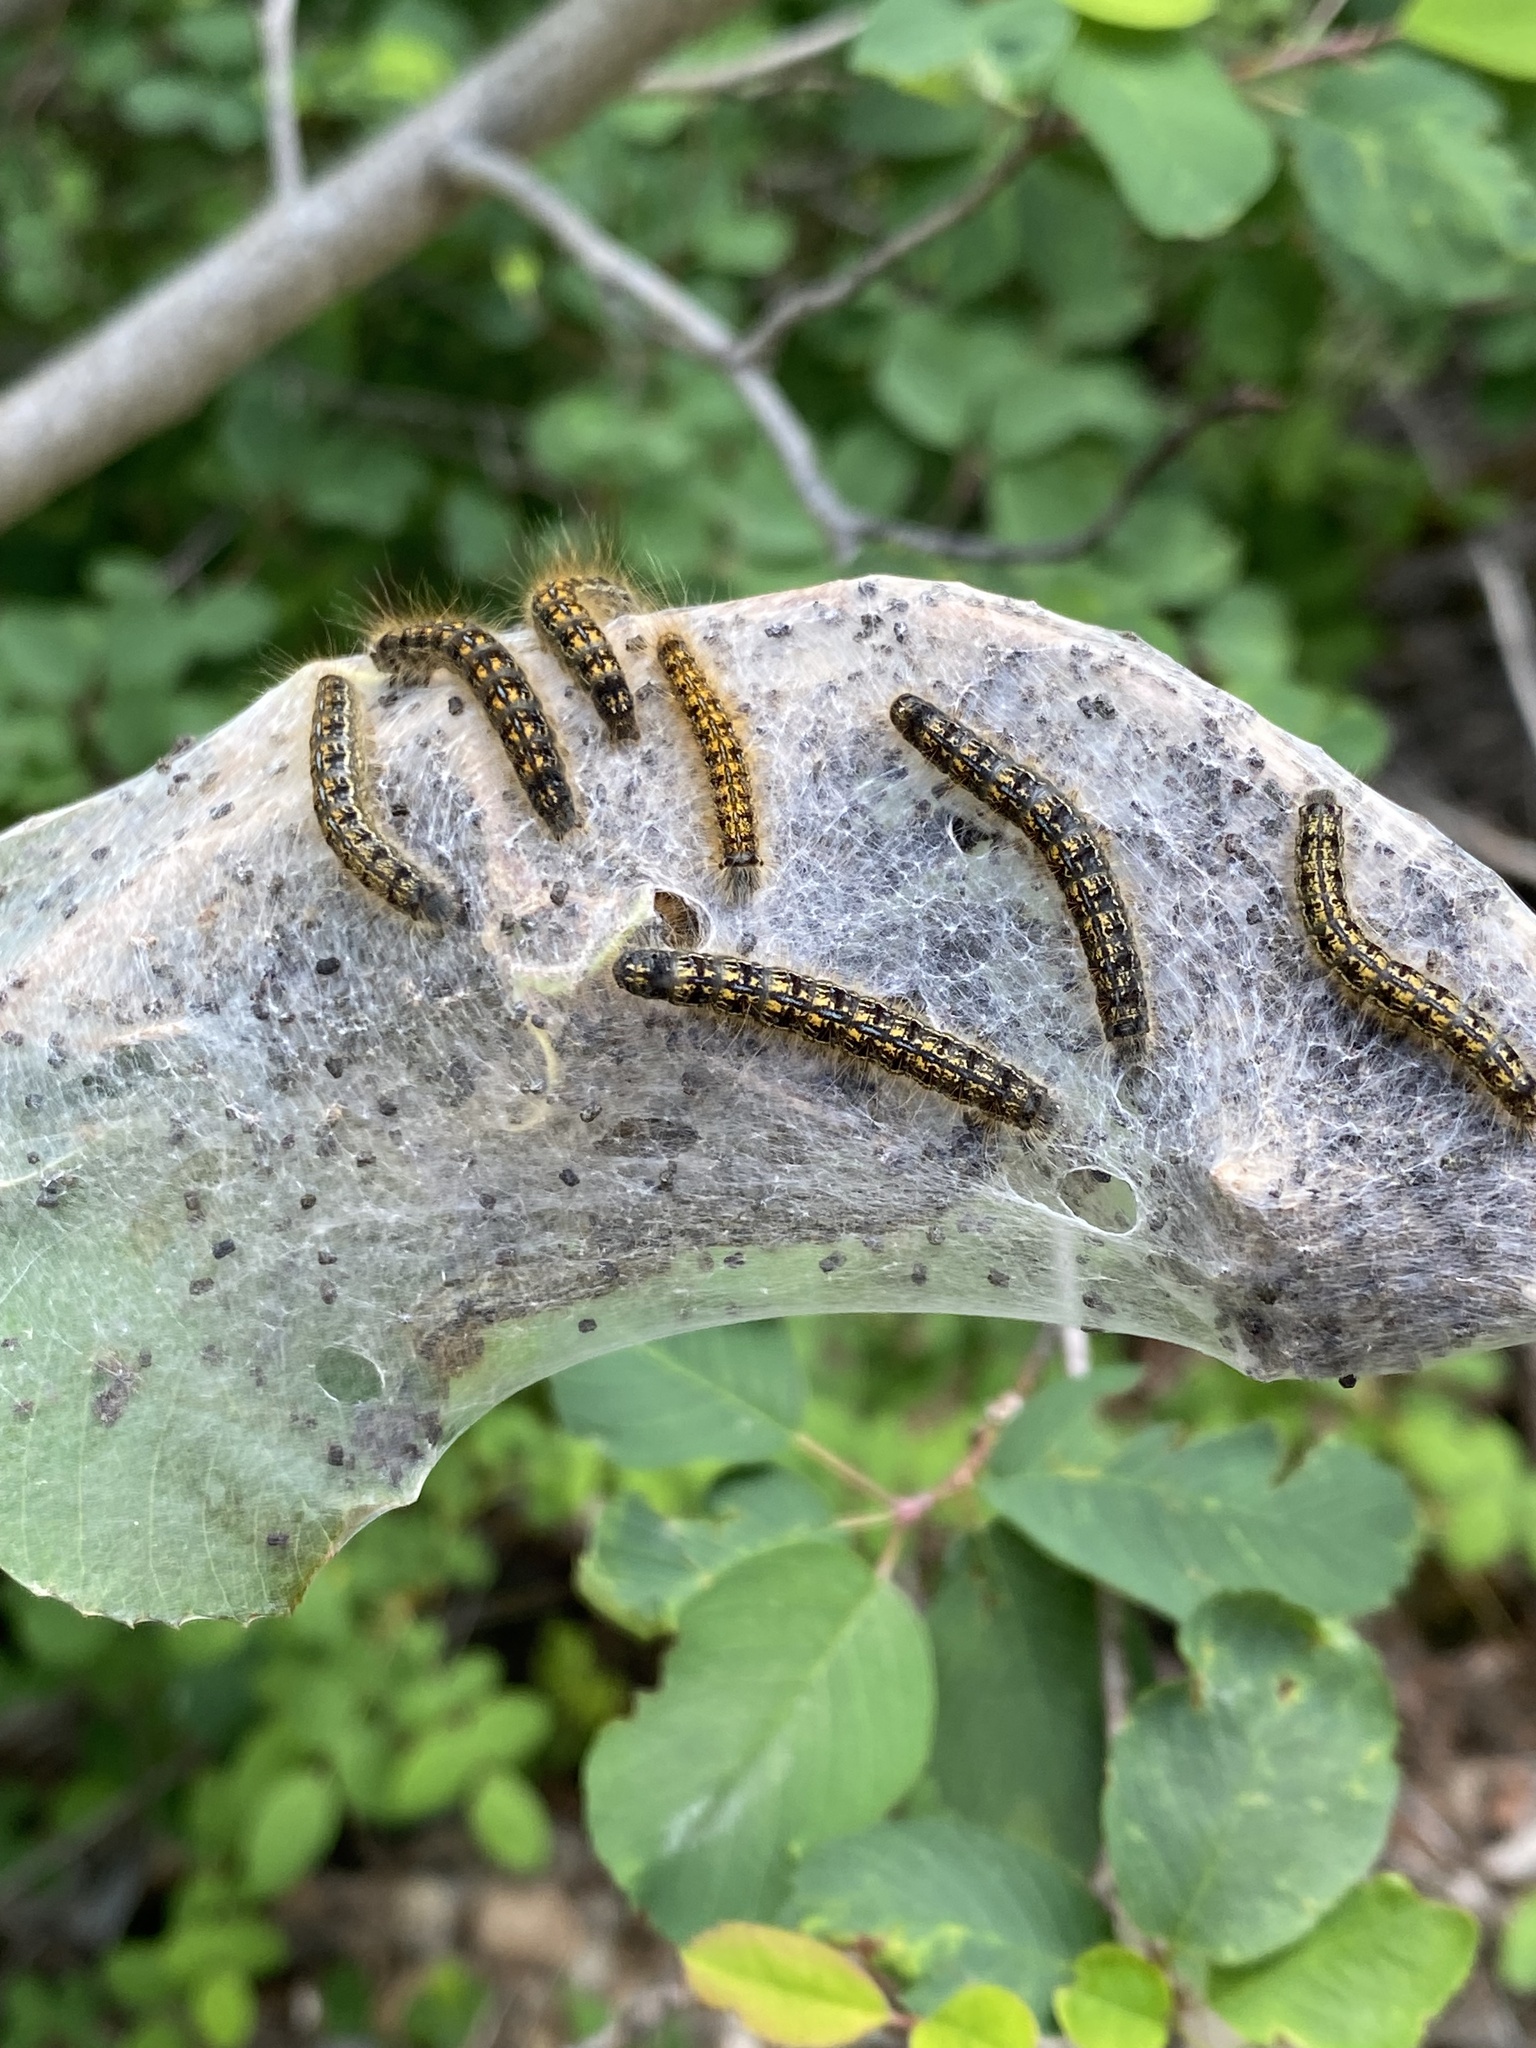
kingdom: Animalia
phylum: Arthropoda
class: Insecta
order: Lepidoptera
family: Lasiocampidae
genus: Malacosoma
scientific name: Malacosoma californica
